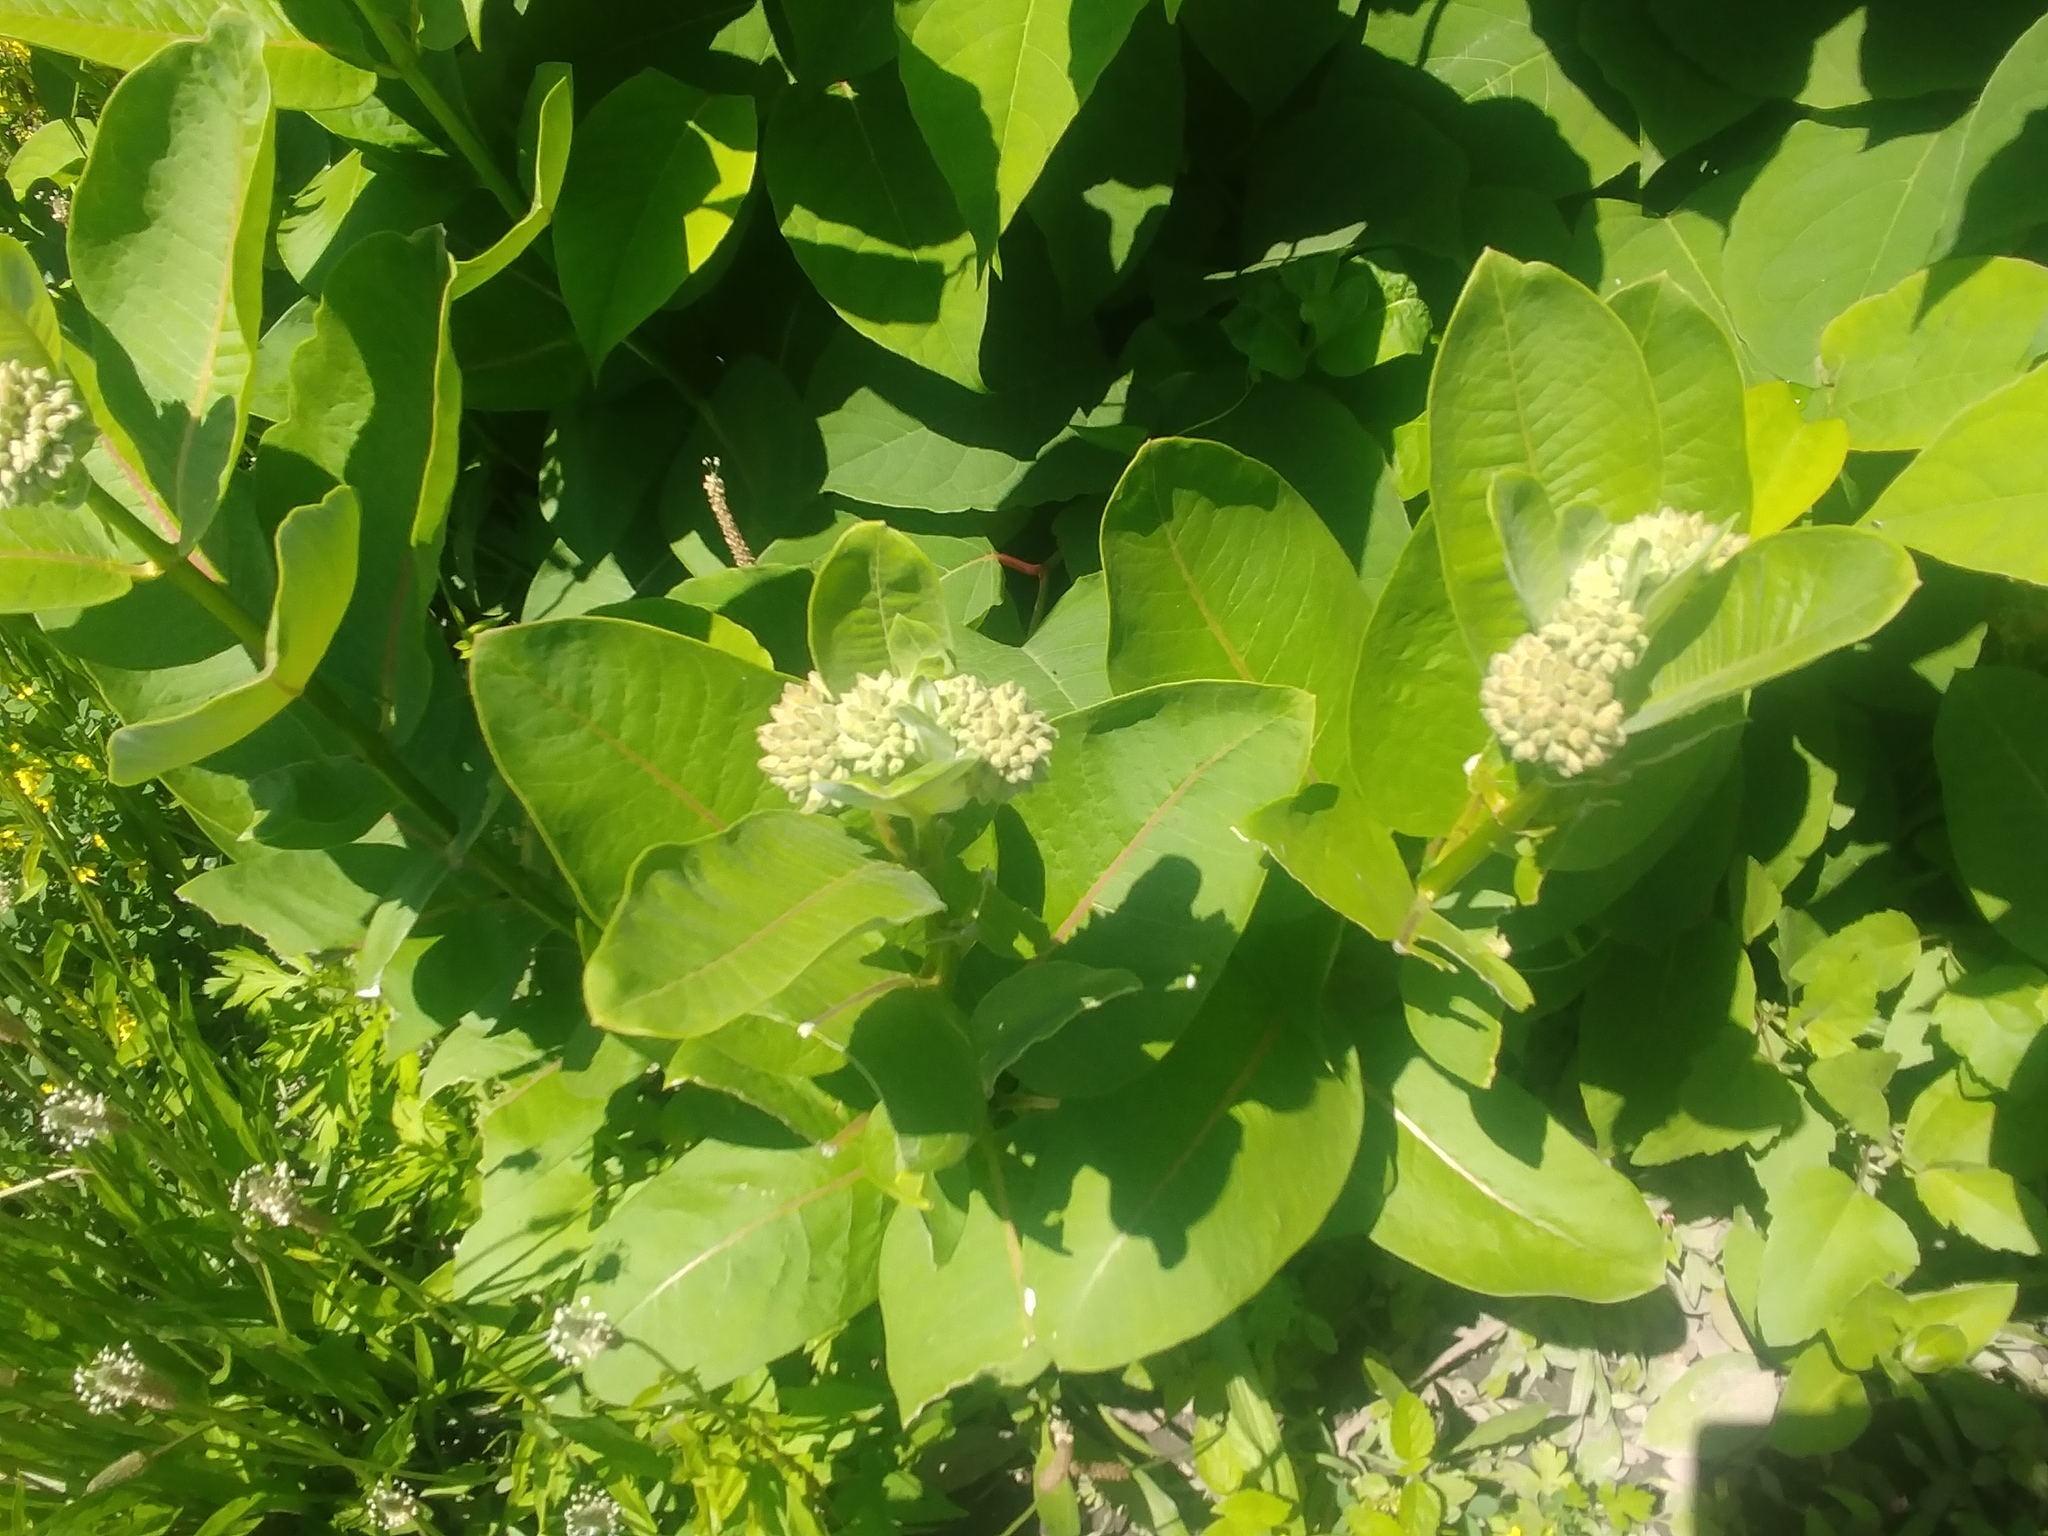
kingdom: Plantae
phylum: Tracheophyta
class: Magnoliopsida
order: Gentianales
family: Apocynaceae
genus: Asclepias
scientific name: Asclepias syriaca
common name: Common milkweed
